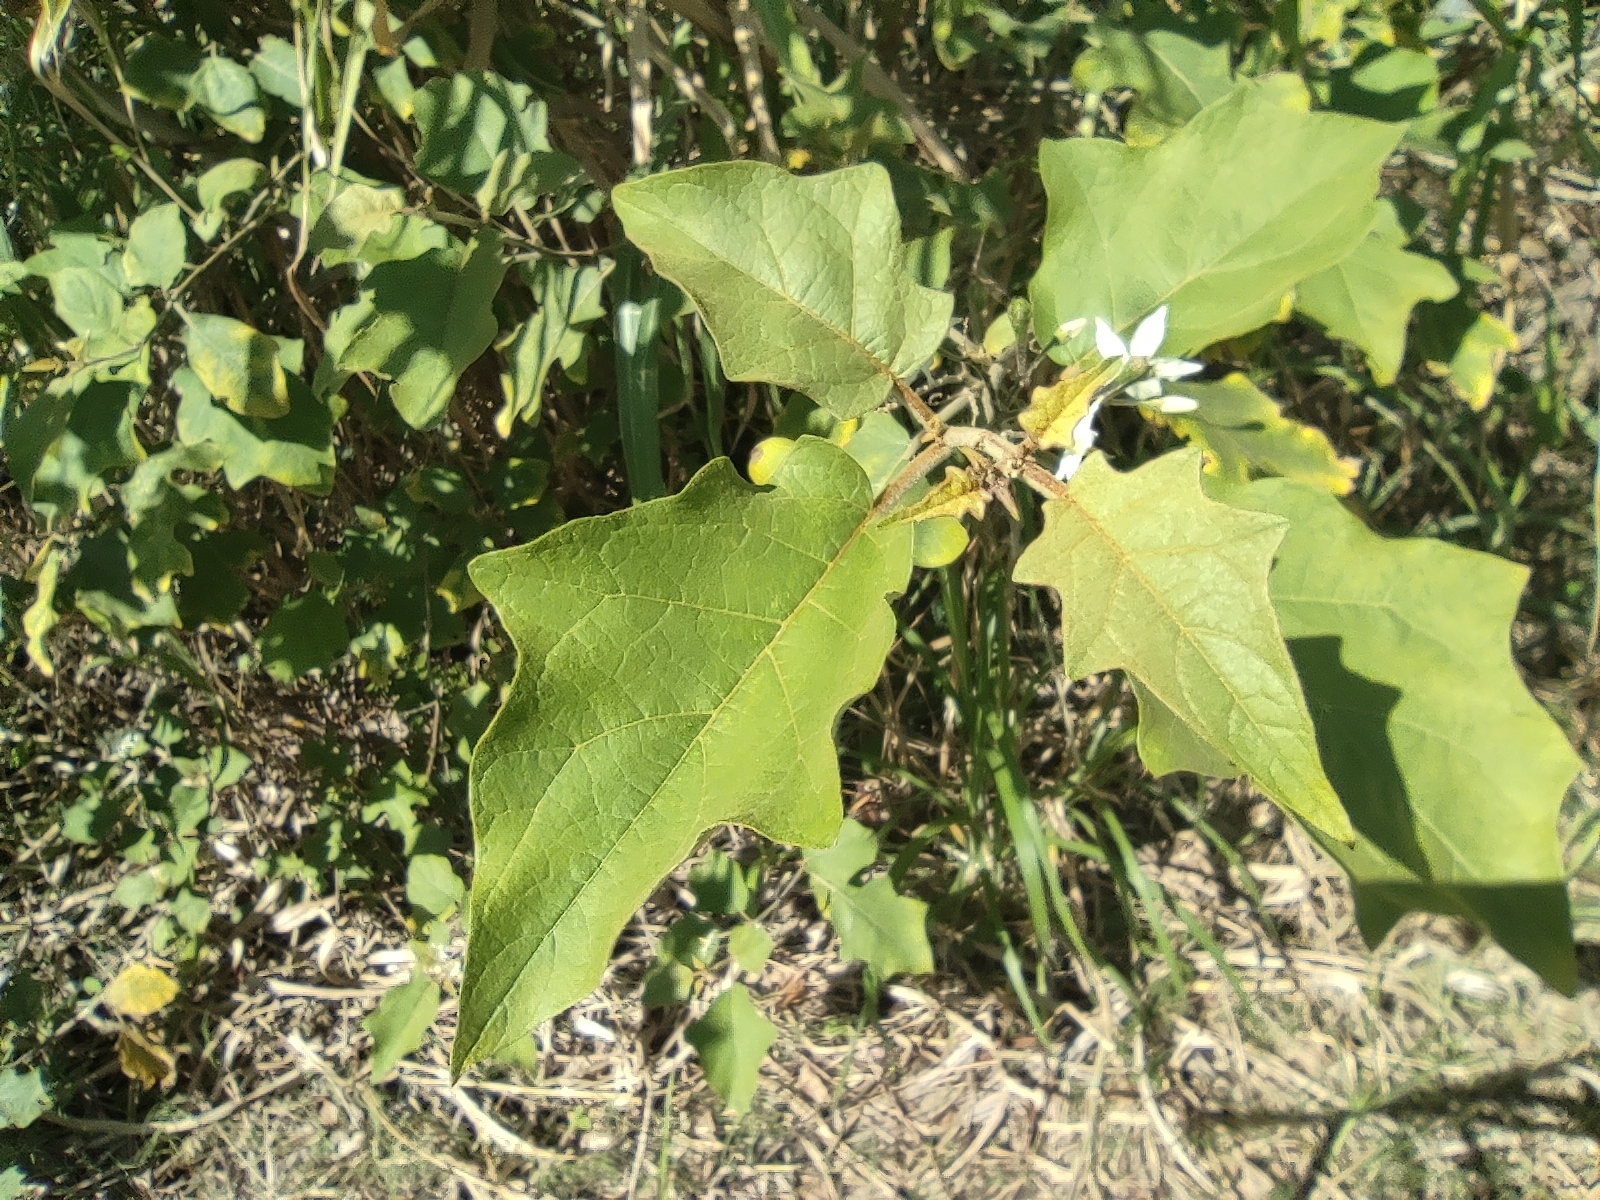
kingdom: Plantae
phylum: Tracheophyta
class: Magnoliopsida
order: Solanales
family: Solanaceae
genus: Solanum
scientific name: Solanum torvum
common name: Turkey berry
